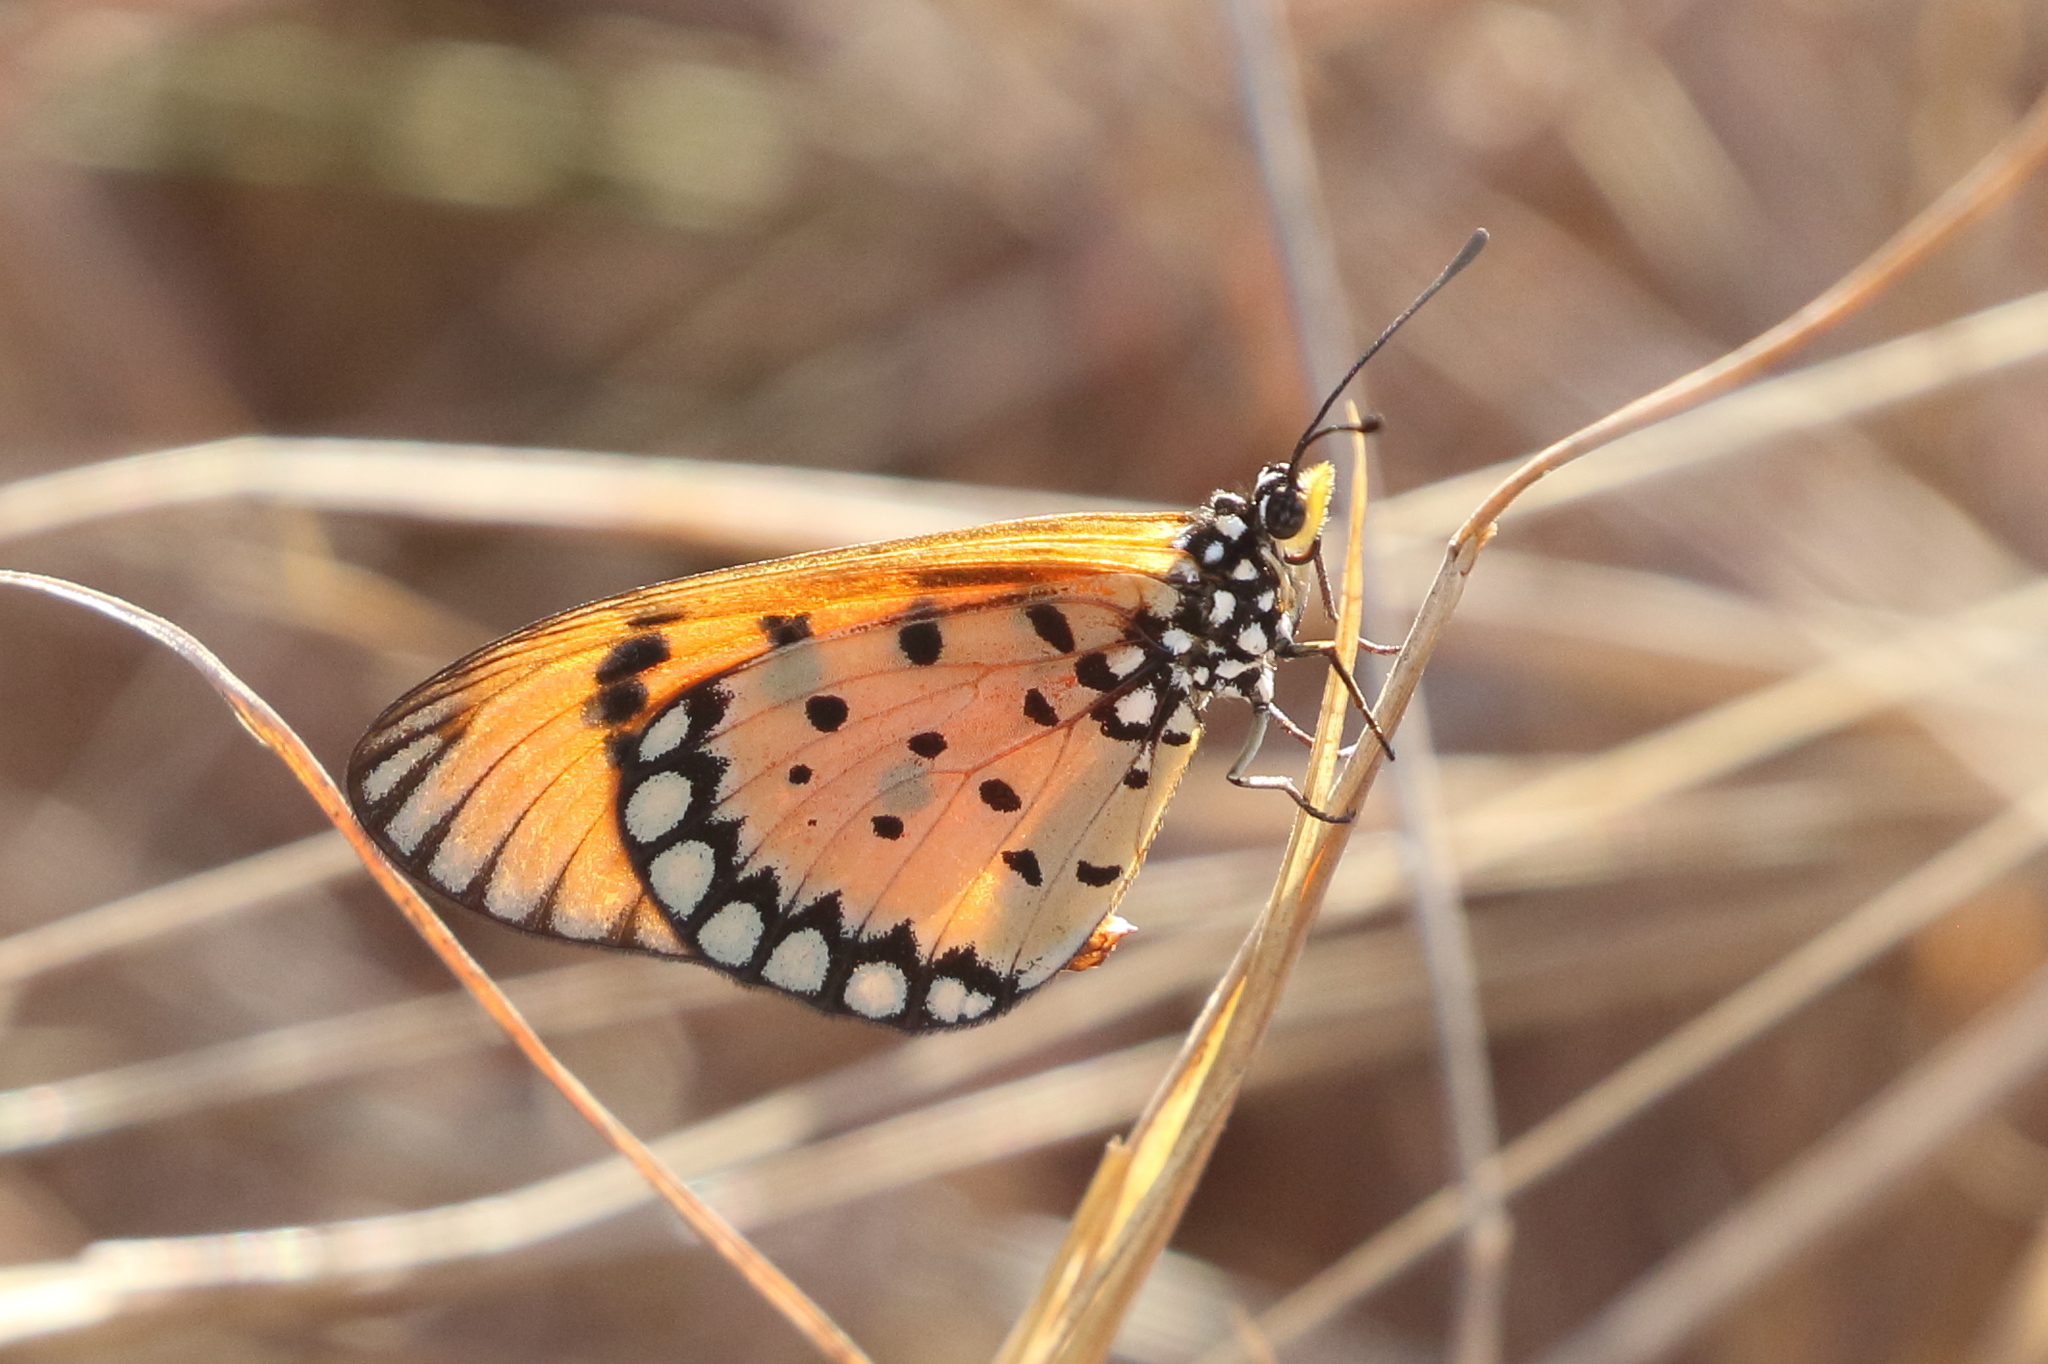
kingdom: Animalia
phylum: Arthropoda
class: Insecta
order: Lepidoptera
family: Nymphalidae
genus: Acraea
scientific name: Acraea terpsicore
